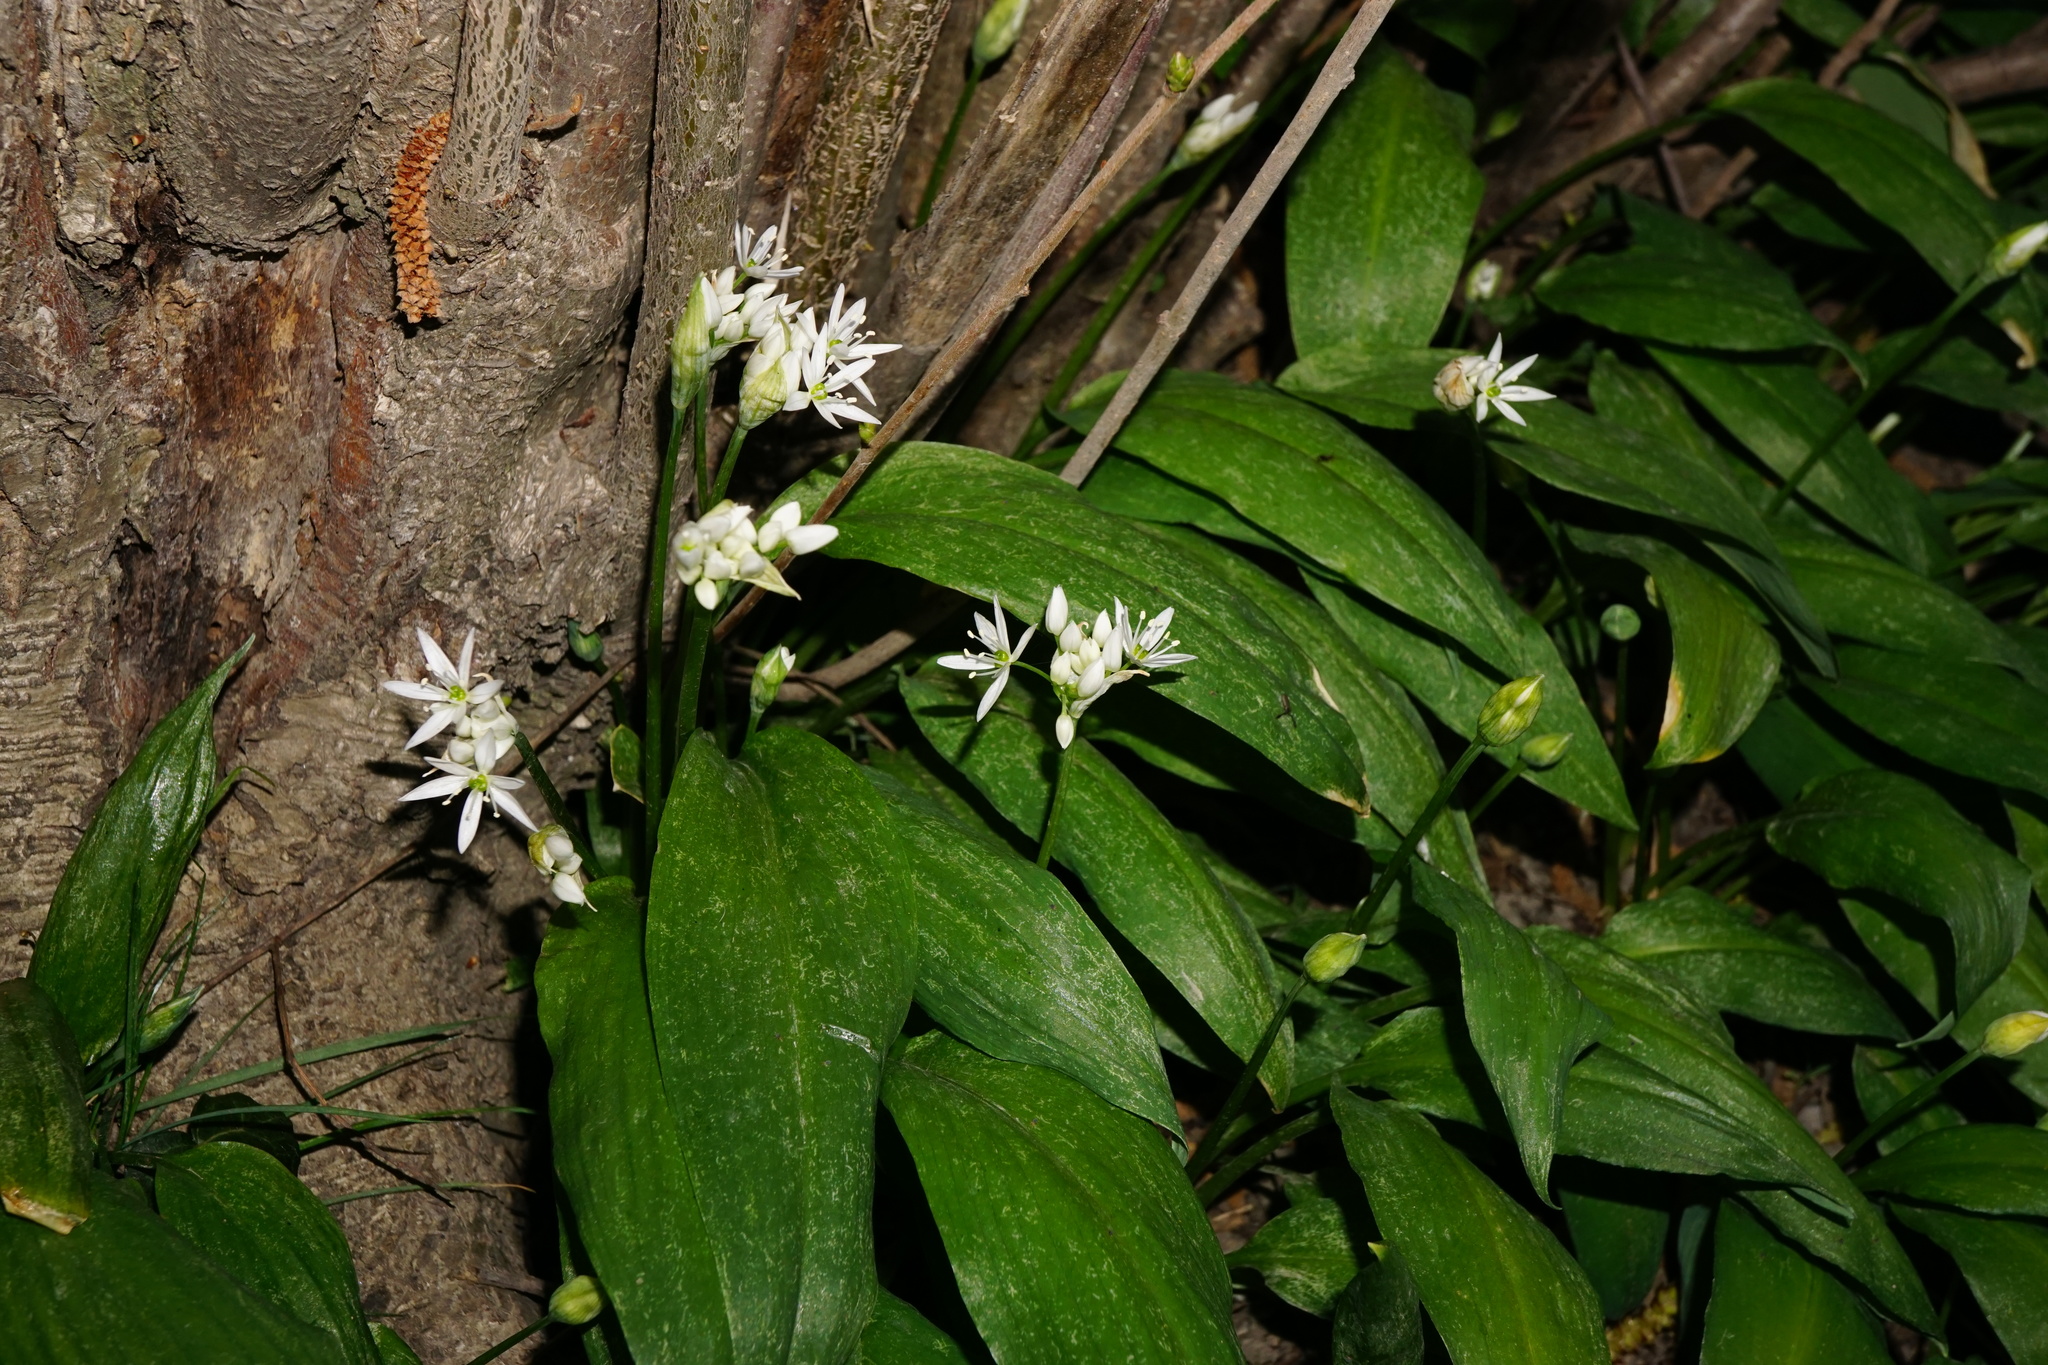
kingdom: Plantae
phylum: Tracheophyta
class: Liliopsida
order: Asparagales
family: Amaryllidaceae
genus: Allium
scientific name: Allium ursinum
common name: Ramsons
